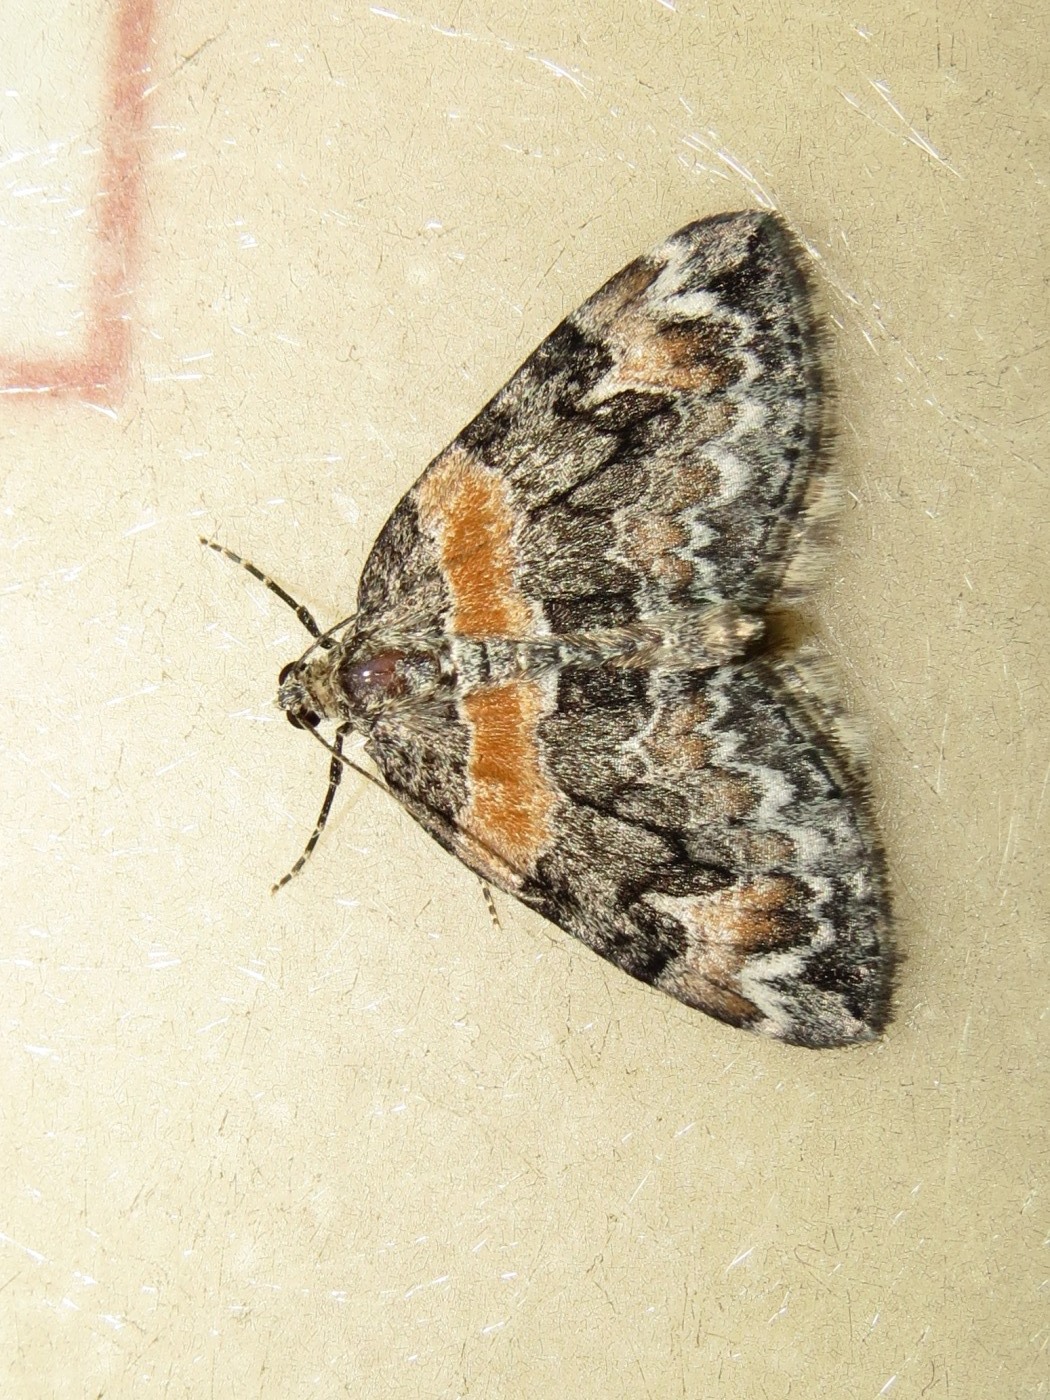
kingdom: Animalia
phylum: Arthropoda
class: Insecta
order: Lepidoptera
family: Geometridae
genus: Dysstroma
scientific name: Dysstroma hersiliata
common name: Orange-barred carpet
